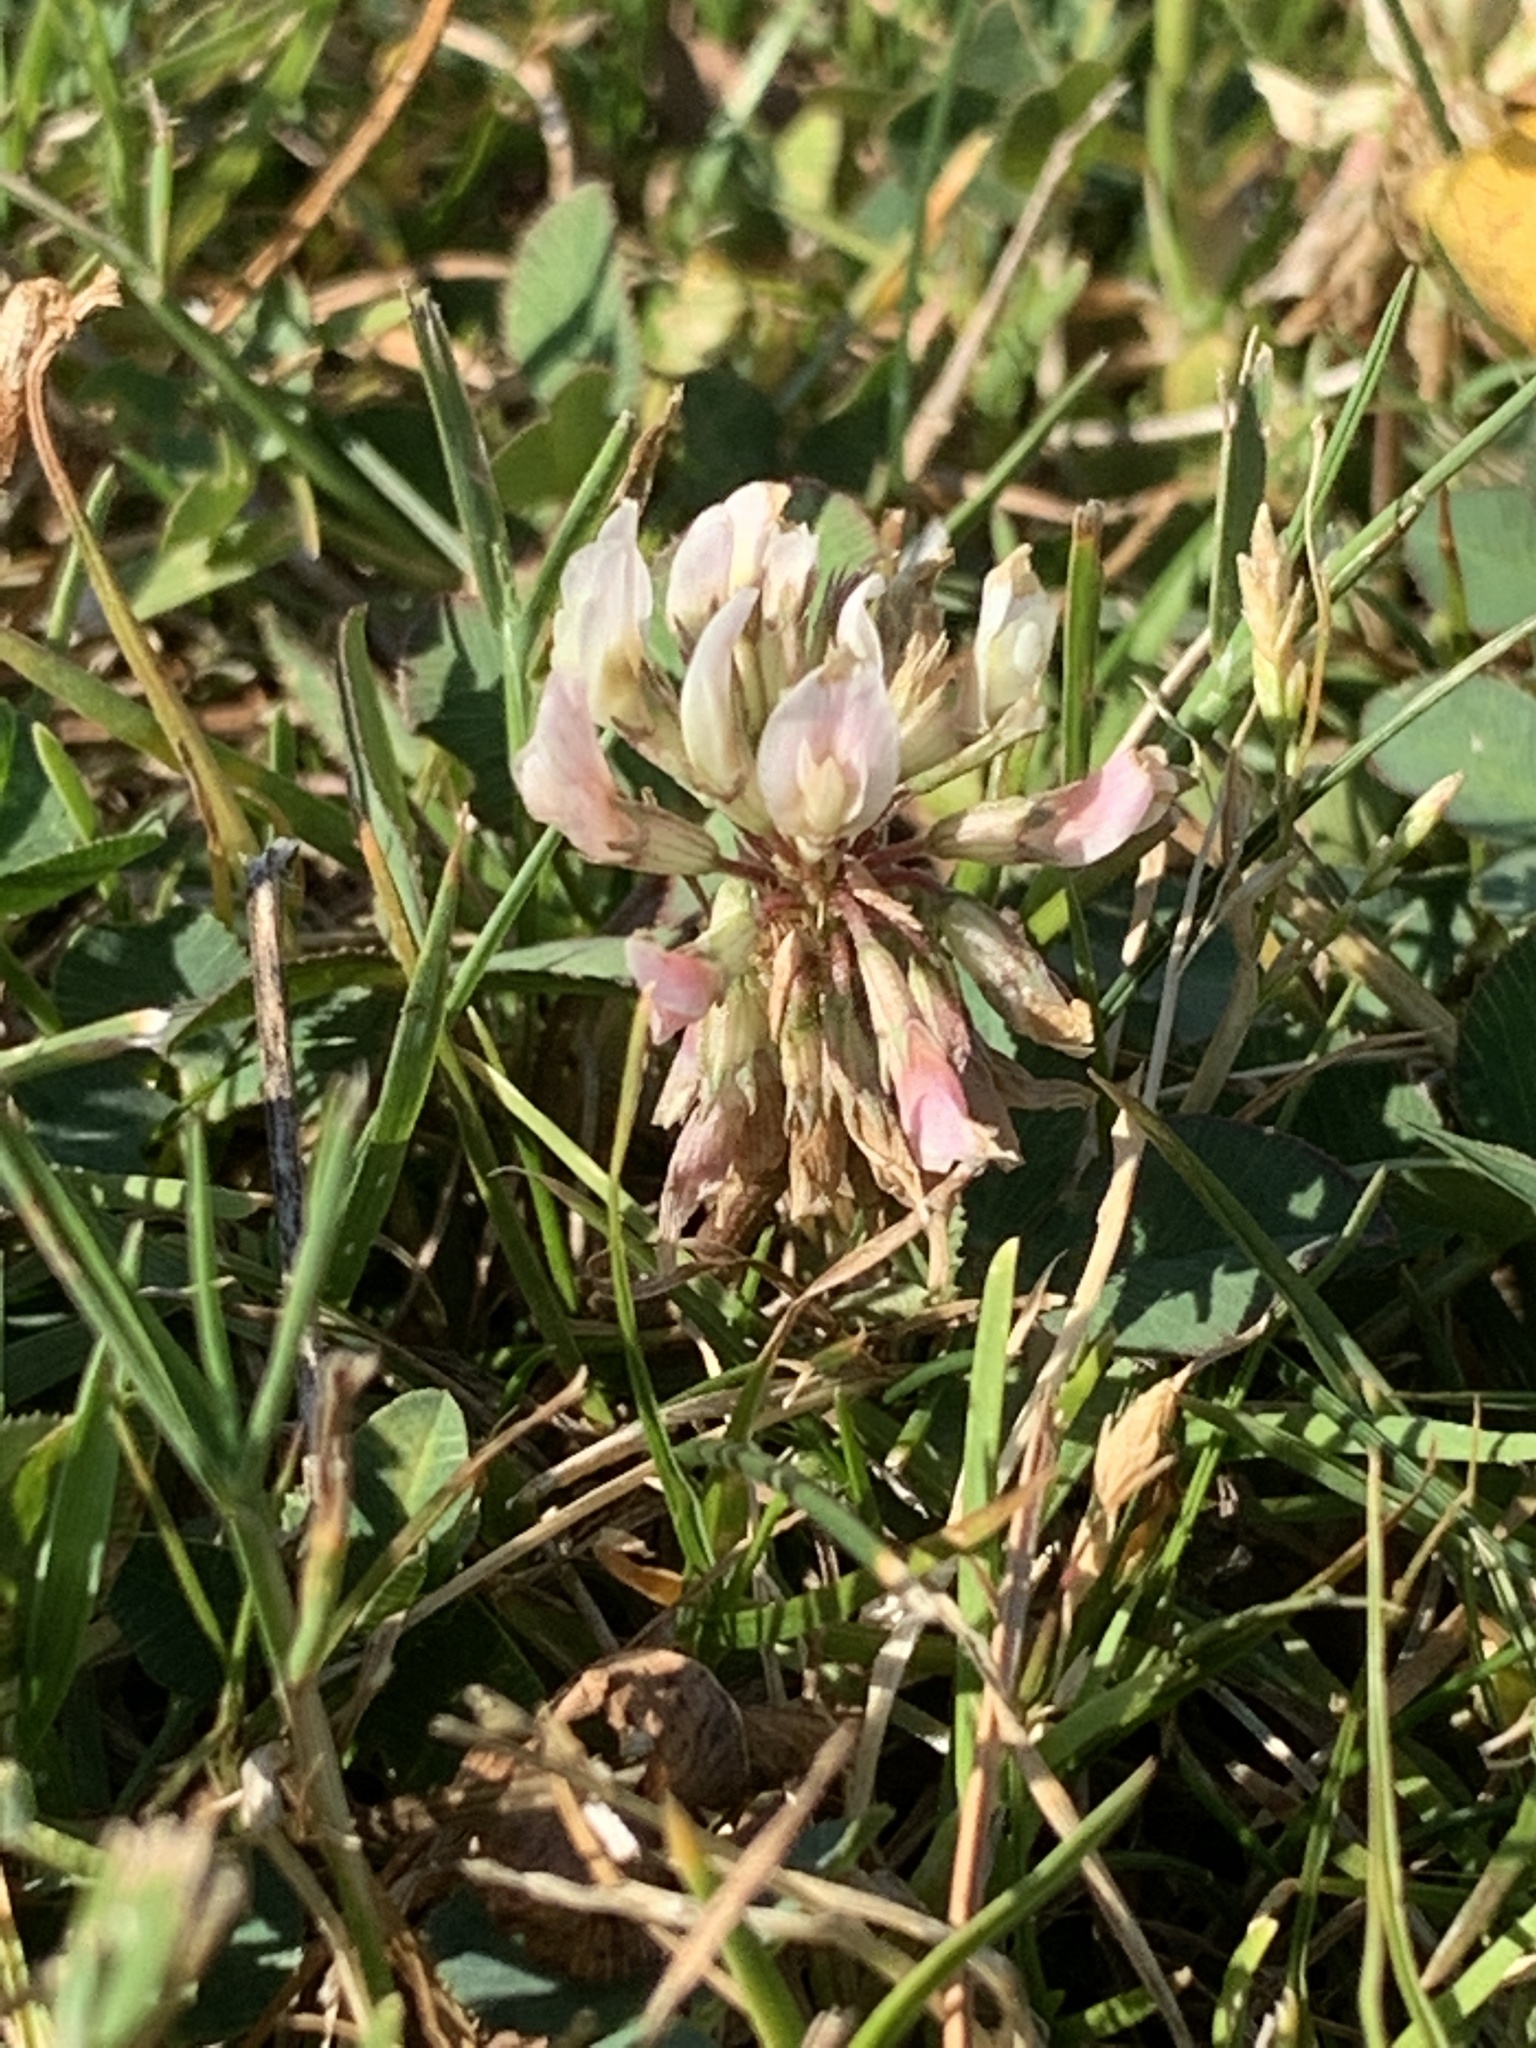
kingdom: Plantae
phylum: Tracheophyta
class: Magnoliopsida
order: Fabales
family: Fabaceae
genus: Trifolium
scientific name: Trifolium repens
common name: White clover
